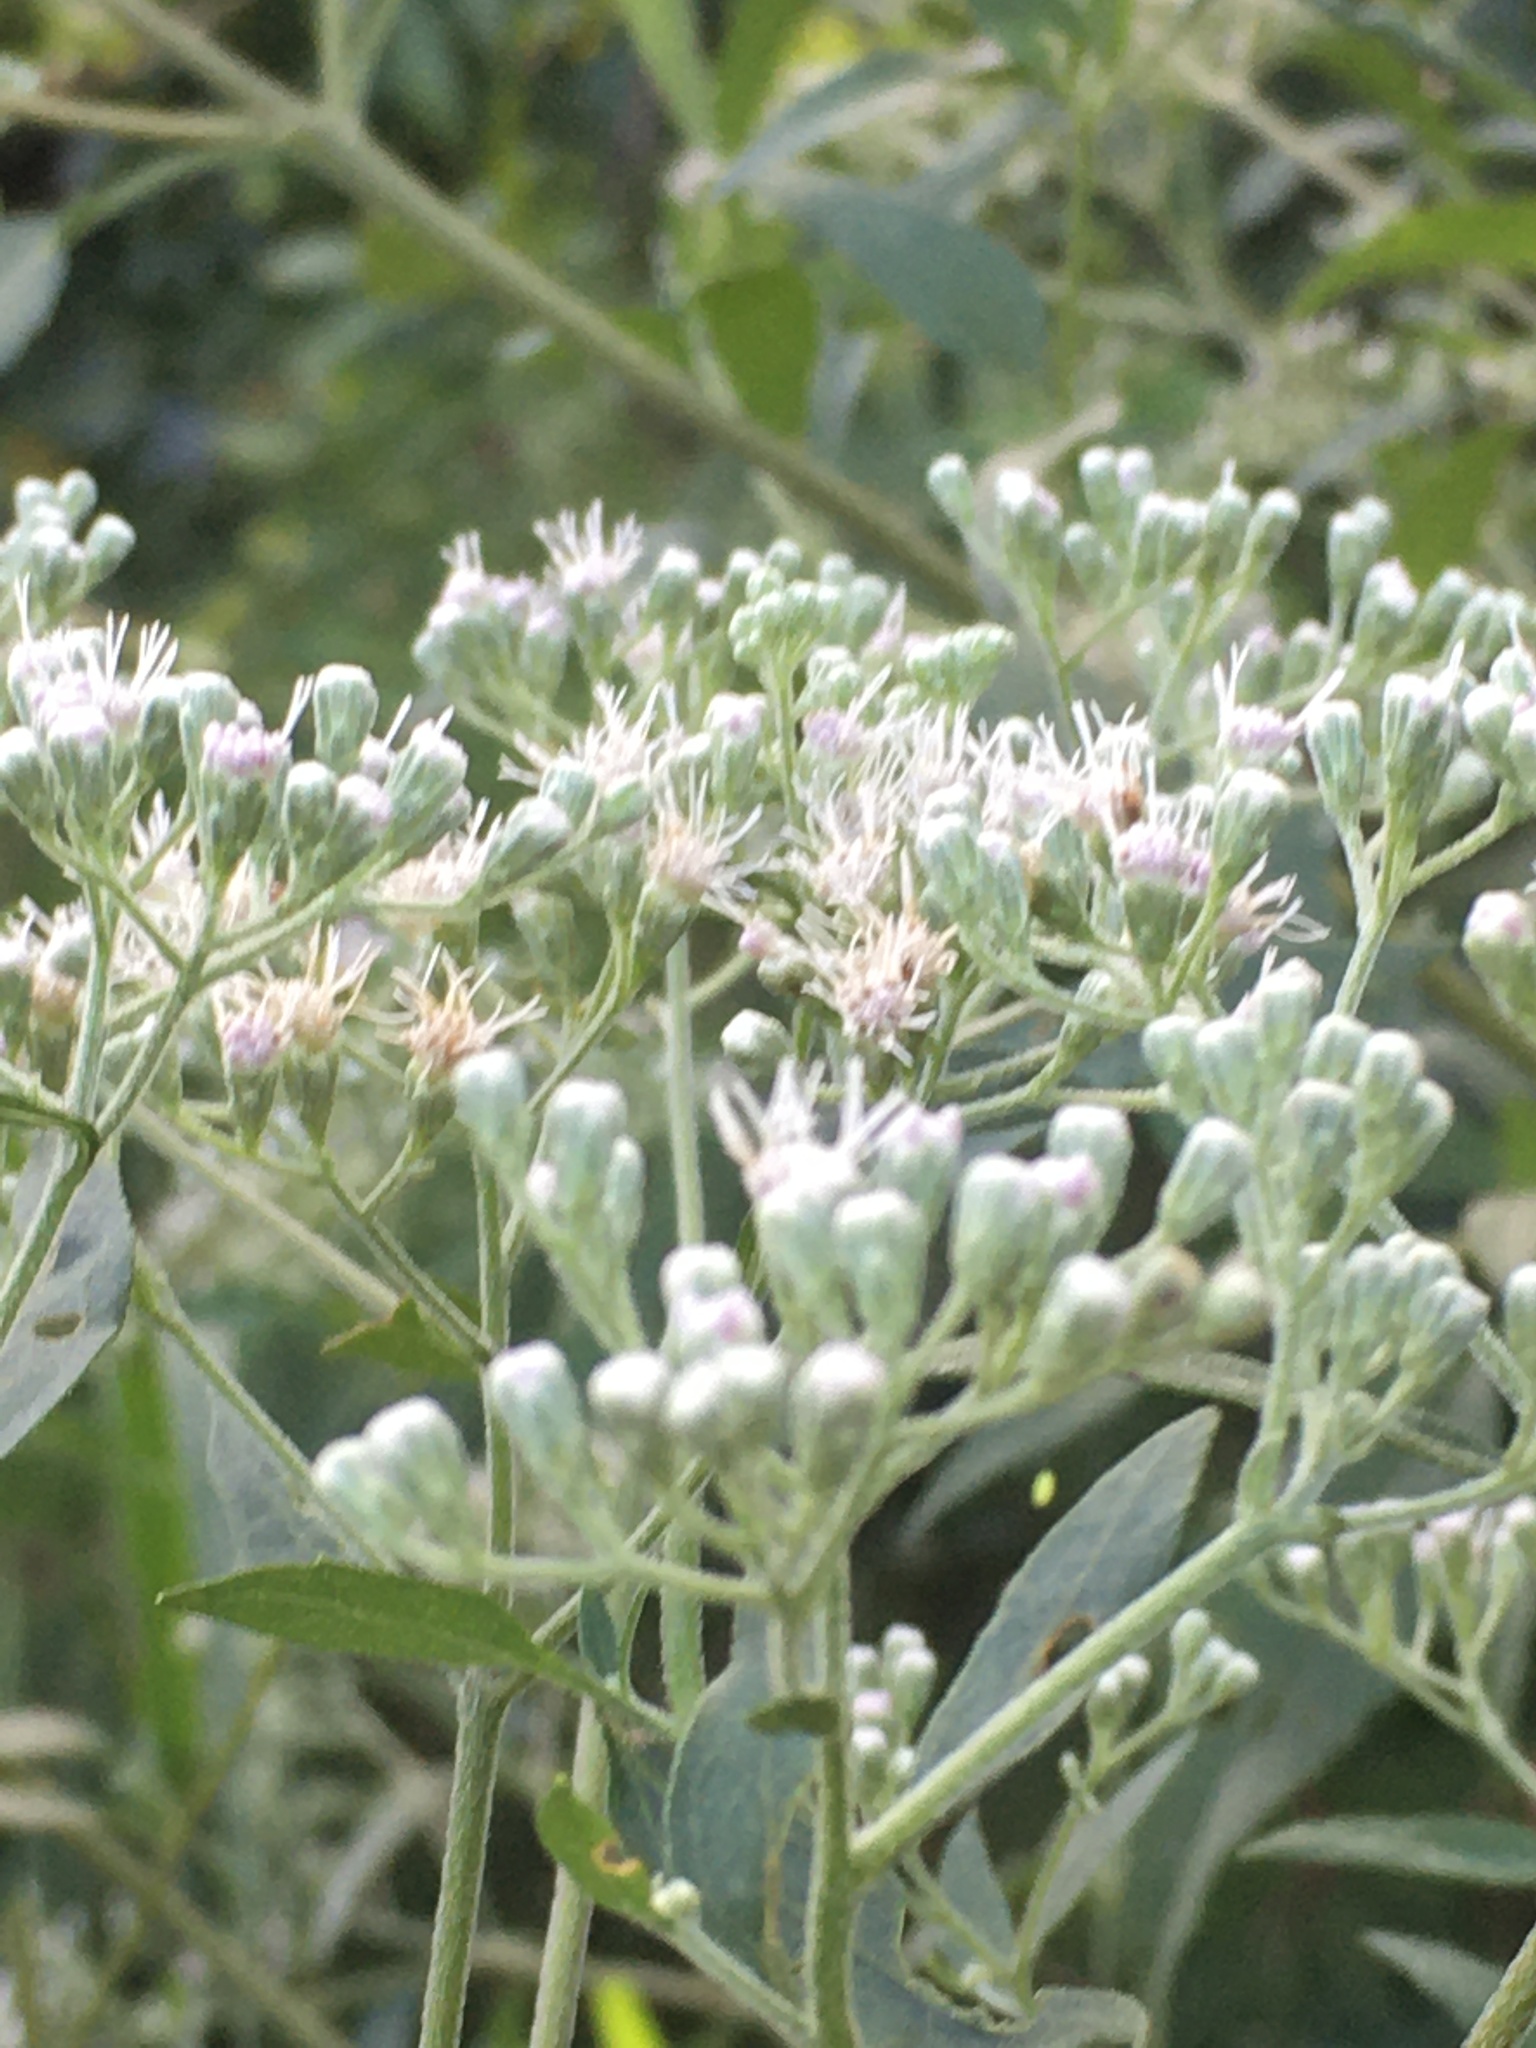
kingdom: Plantae
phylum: Tracheophyta
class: Magnoliopsida
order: Asterales
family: Asteraceae
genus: Eupatorium
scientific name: Eupatorium serotinum
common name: Late boneset
